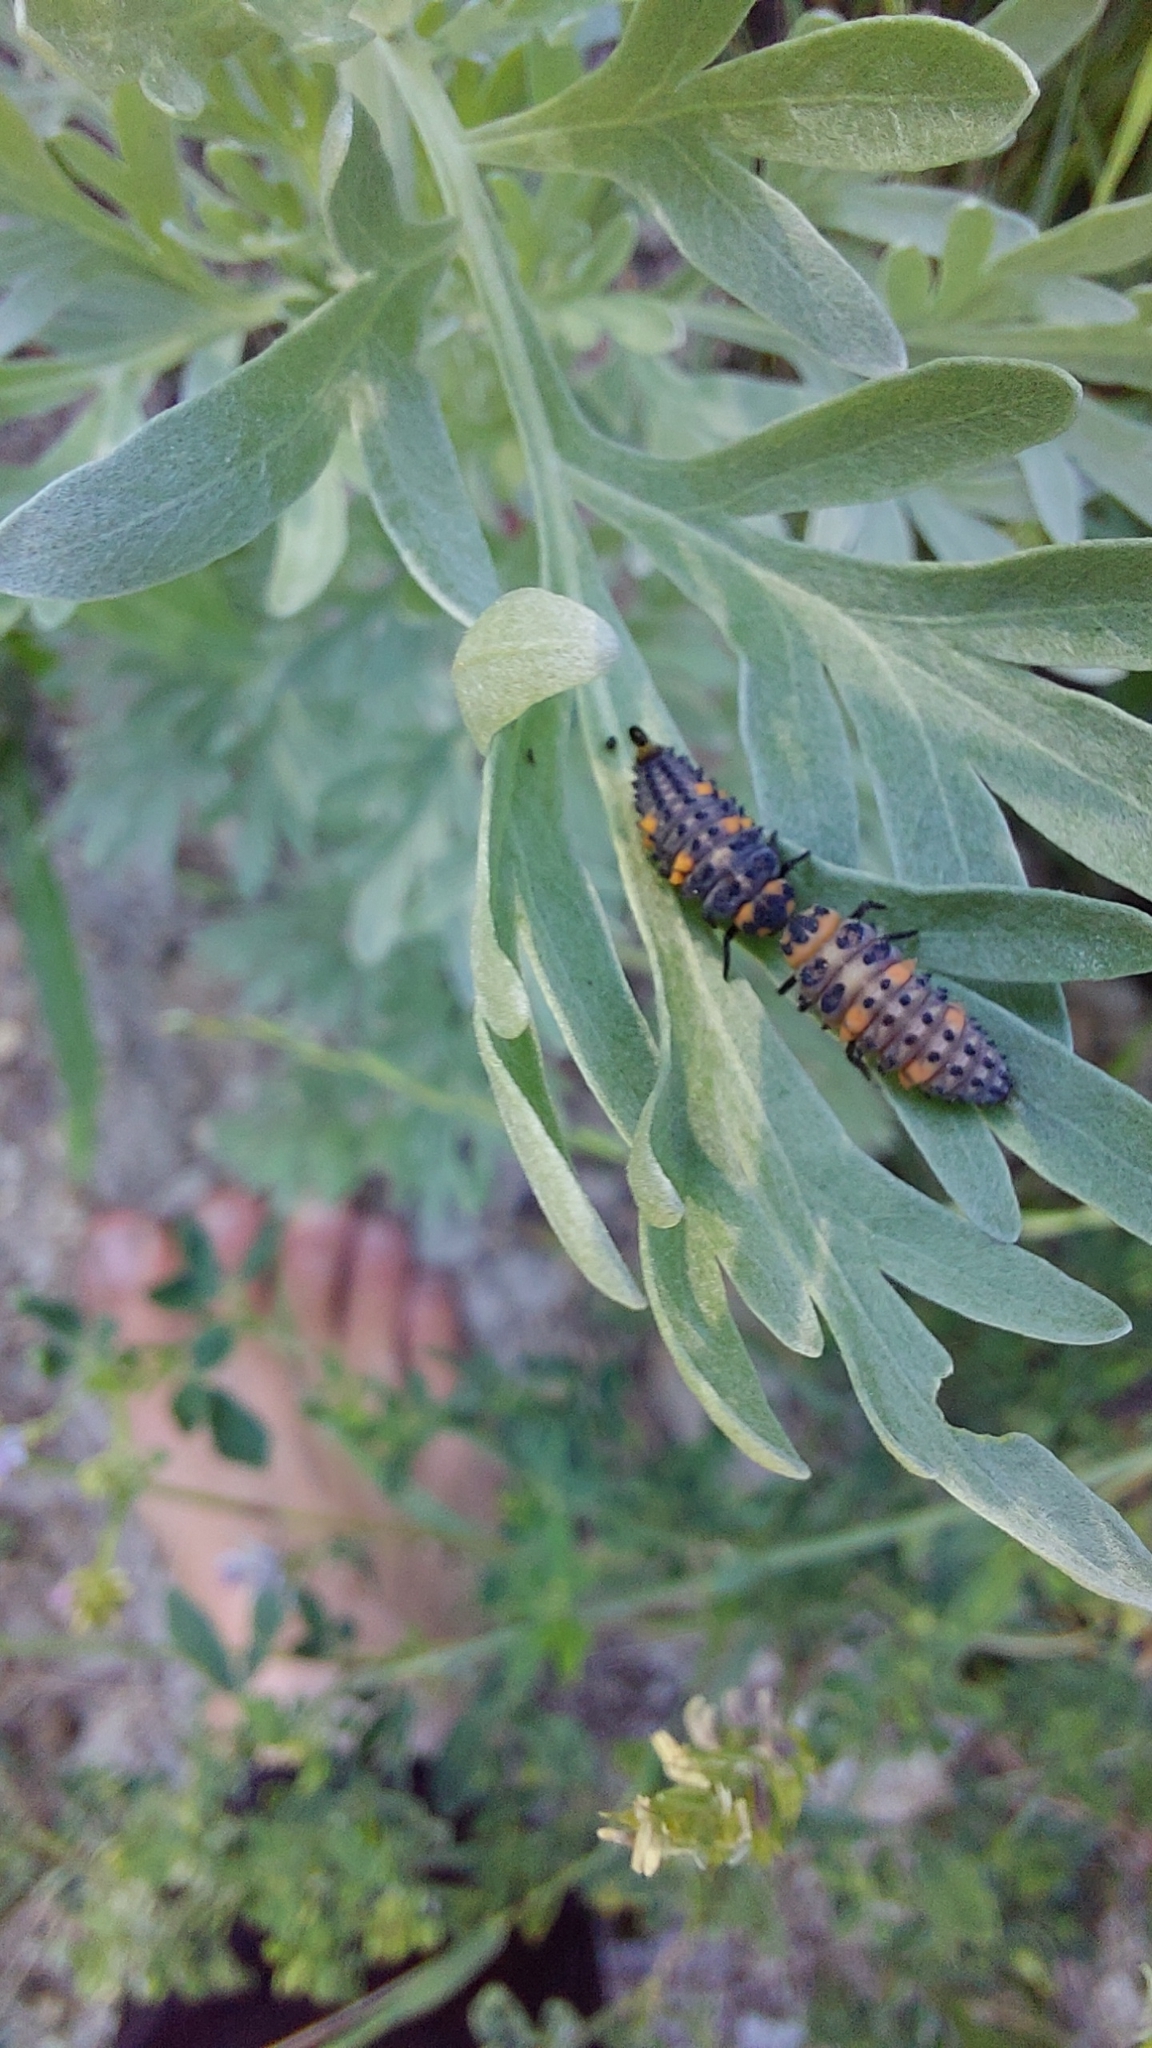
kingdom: Animalia
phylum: Arthropoda
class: Insecta
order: Coleoptera
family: Coccinellidae
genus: Coccinella
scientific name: Coccinella septempunctata
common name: Sevenspotted lady beetle
